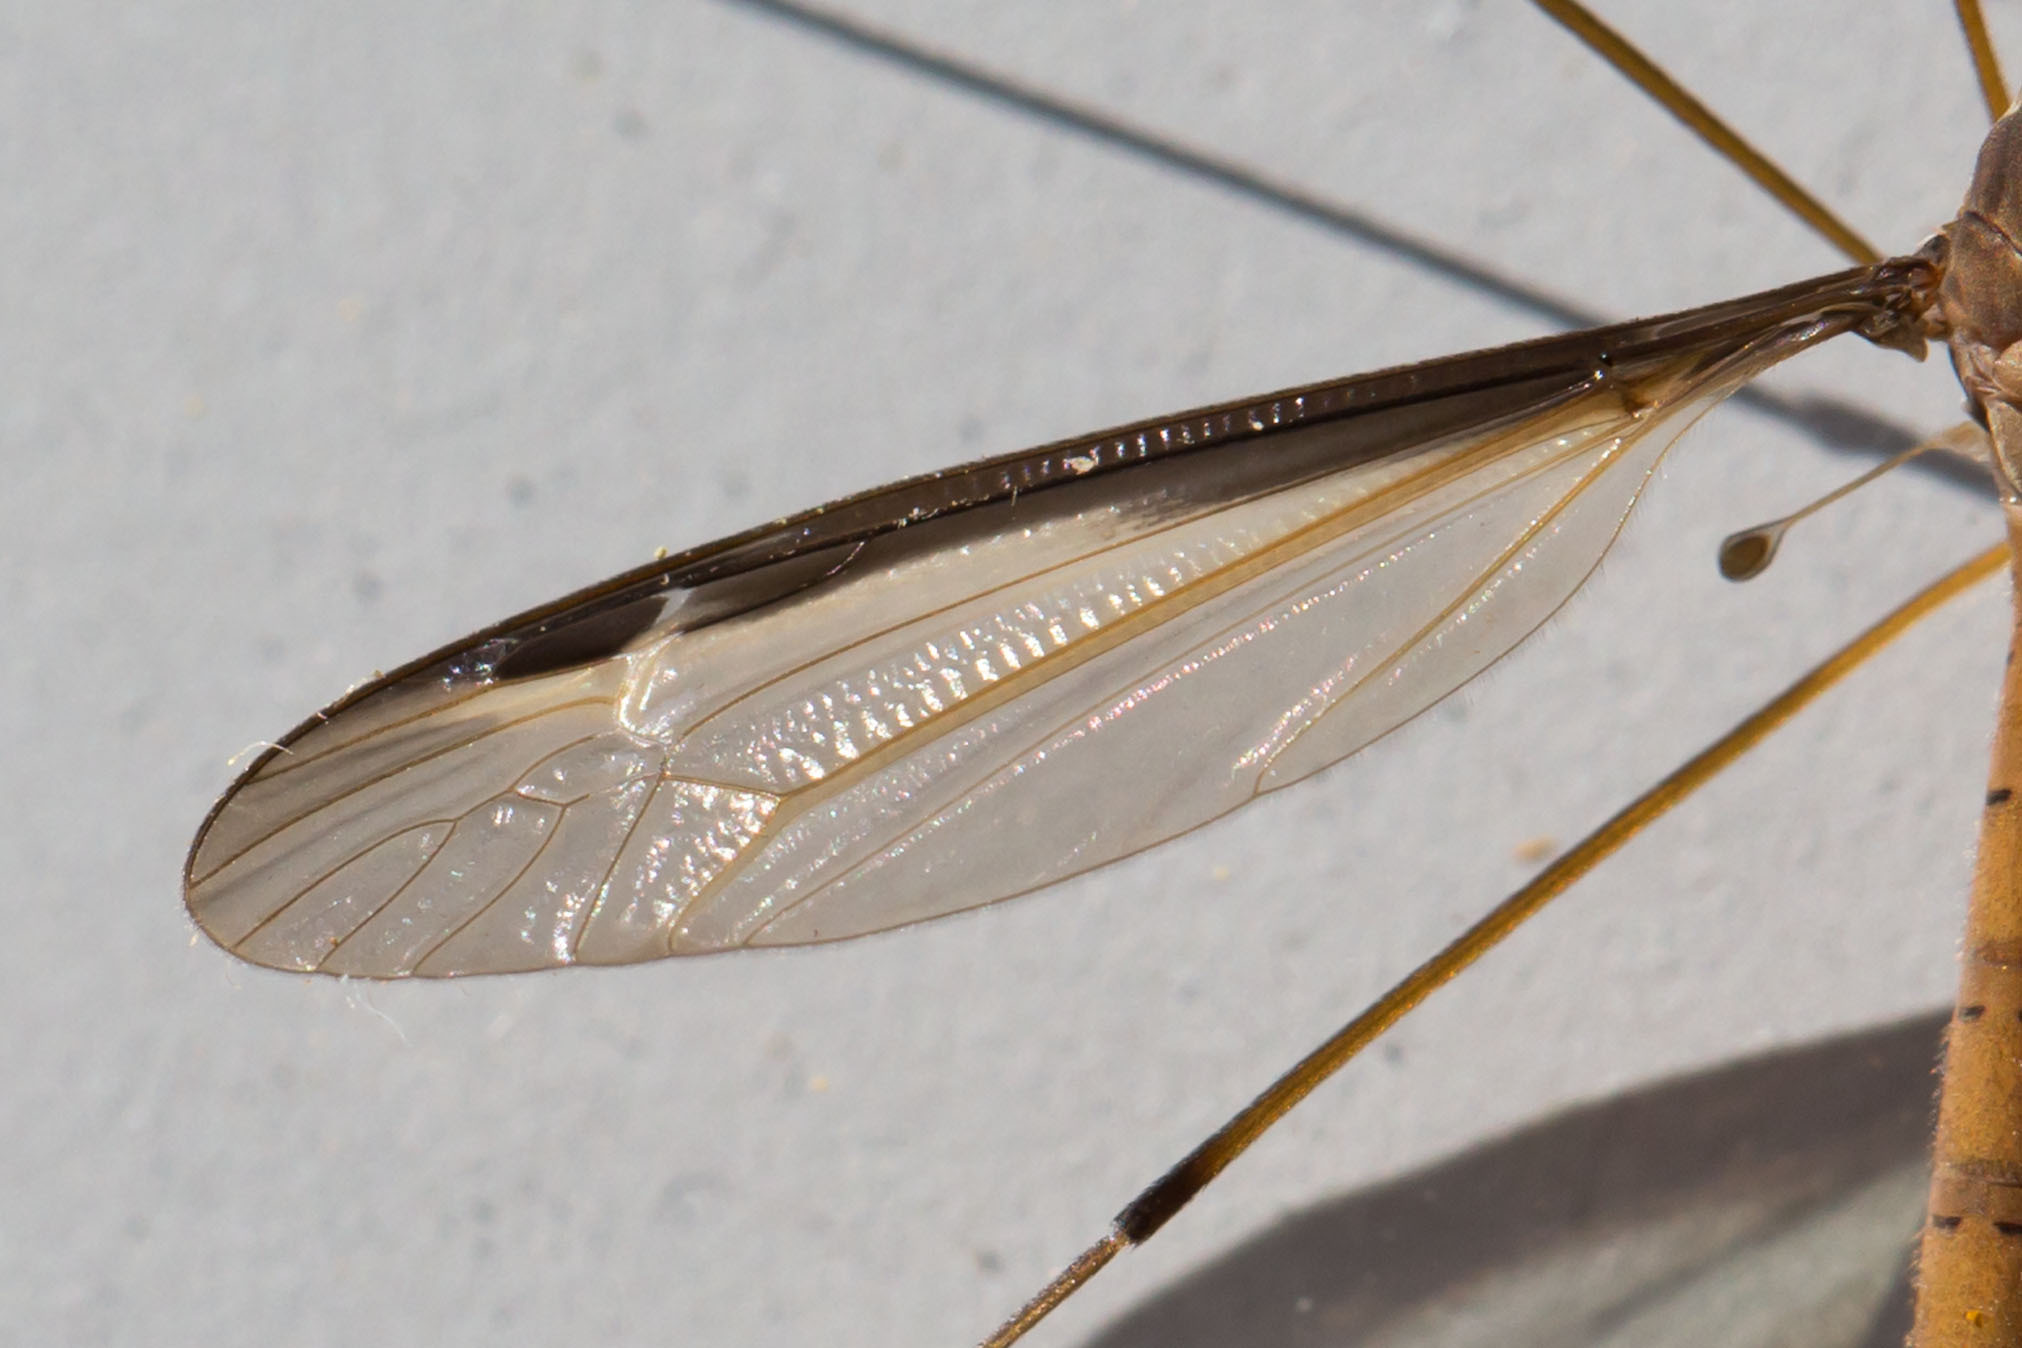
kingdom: Animalia
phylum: Arthropoda
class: Insecta
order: Diptera
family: Tipulidae
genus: Tipula
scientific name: Tipula sayi
